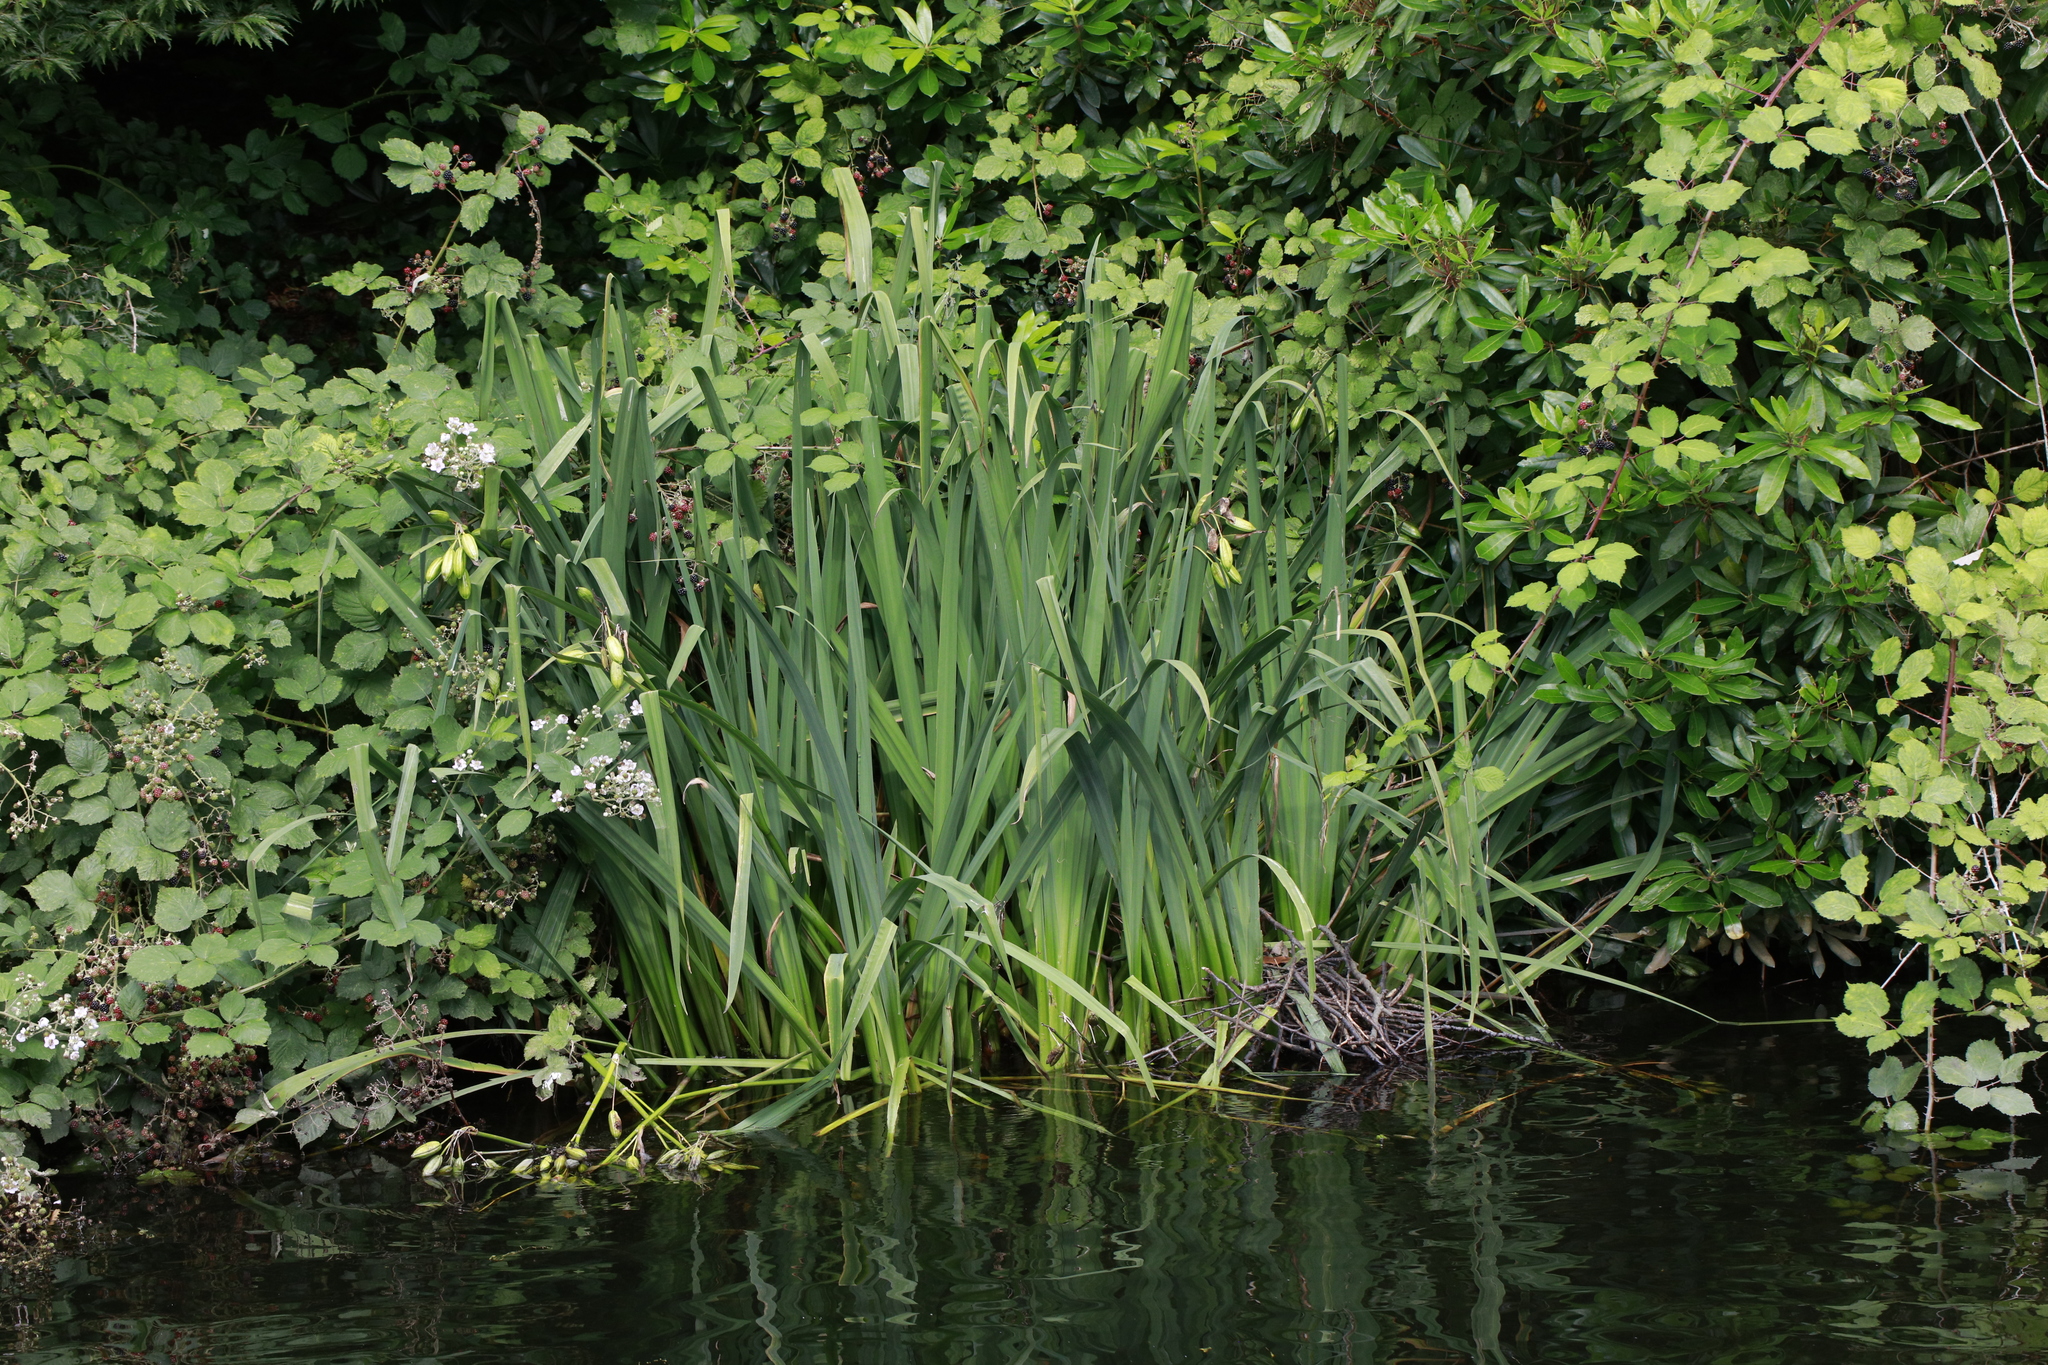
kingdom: Plantae
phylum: Tracheophyta
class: Liliopsida
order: Asparagales
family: Iridaceae
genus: Iris
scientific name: Iris pseudacorus
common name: Yellow flag
